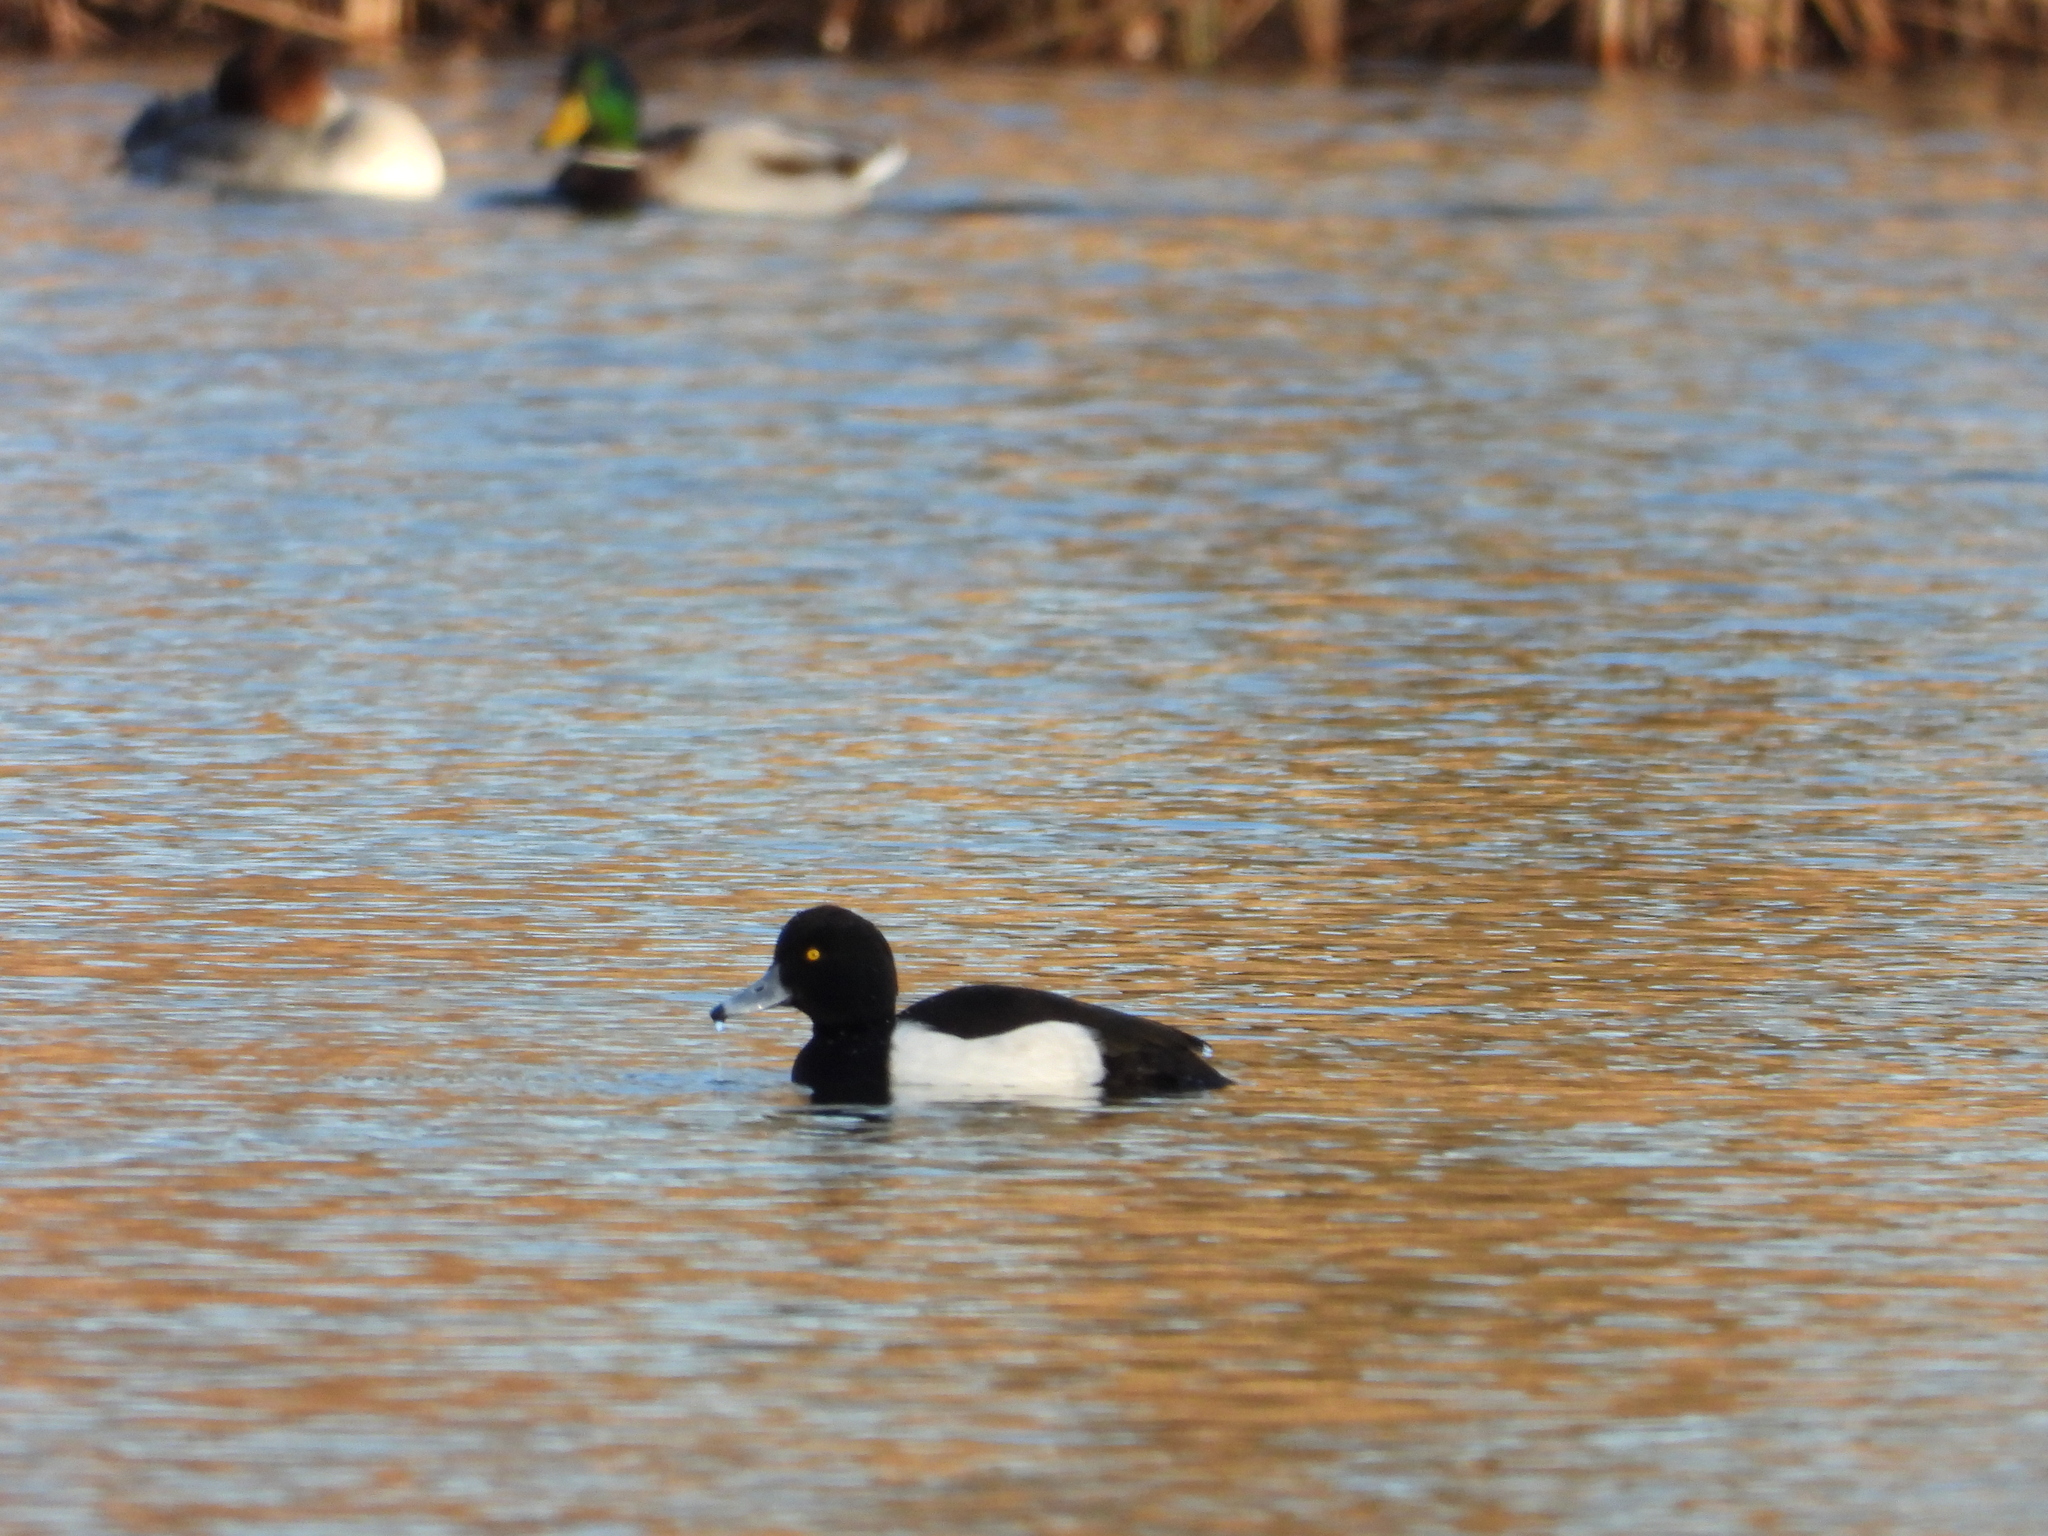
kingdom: Animalia
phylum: Chordata
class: Aves
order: Anseriformes
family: Anatidae
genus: Aythya
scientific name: Aythya fuligula
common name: Tufted duck
